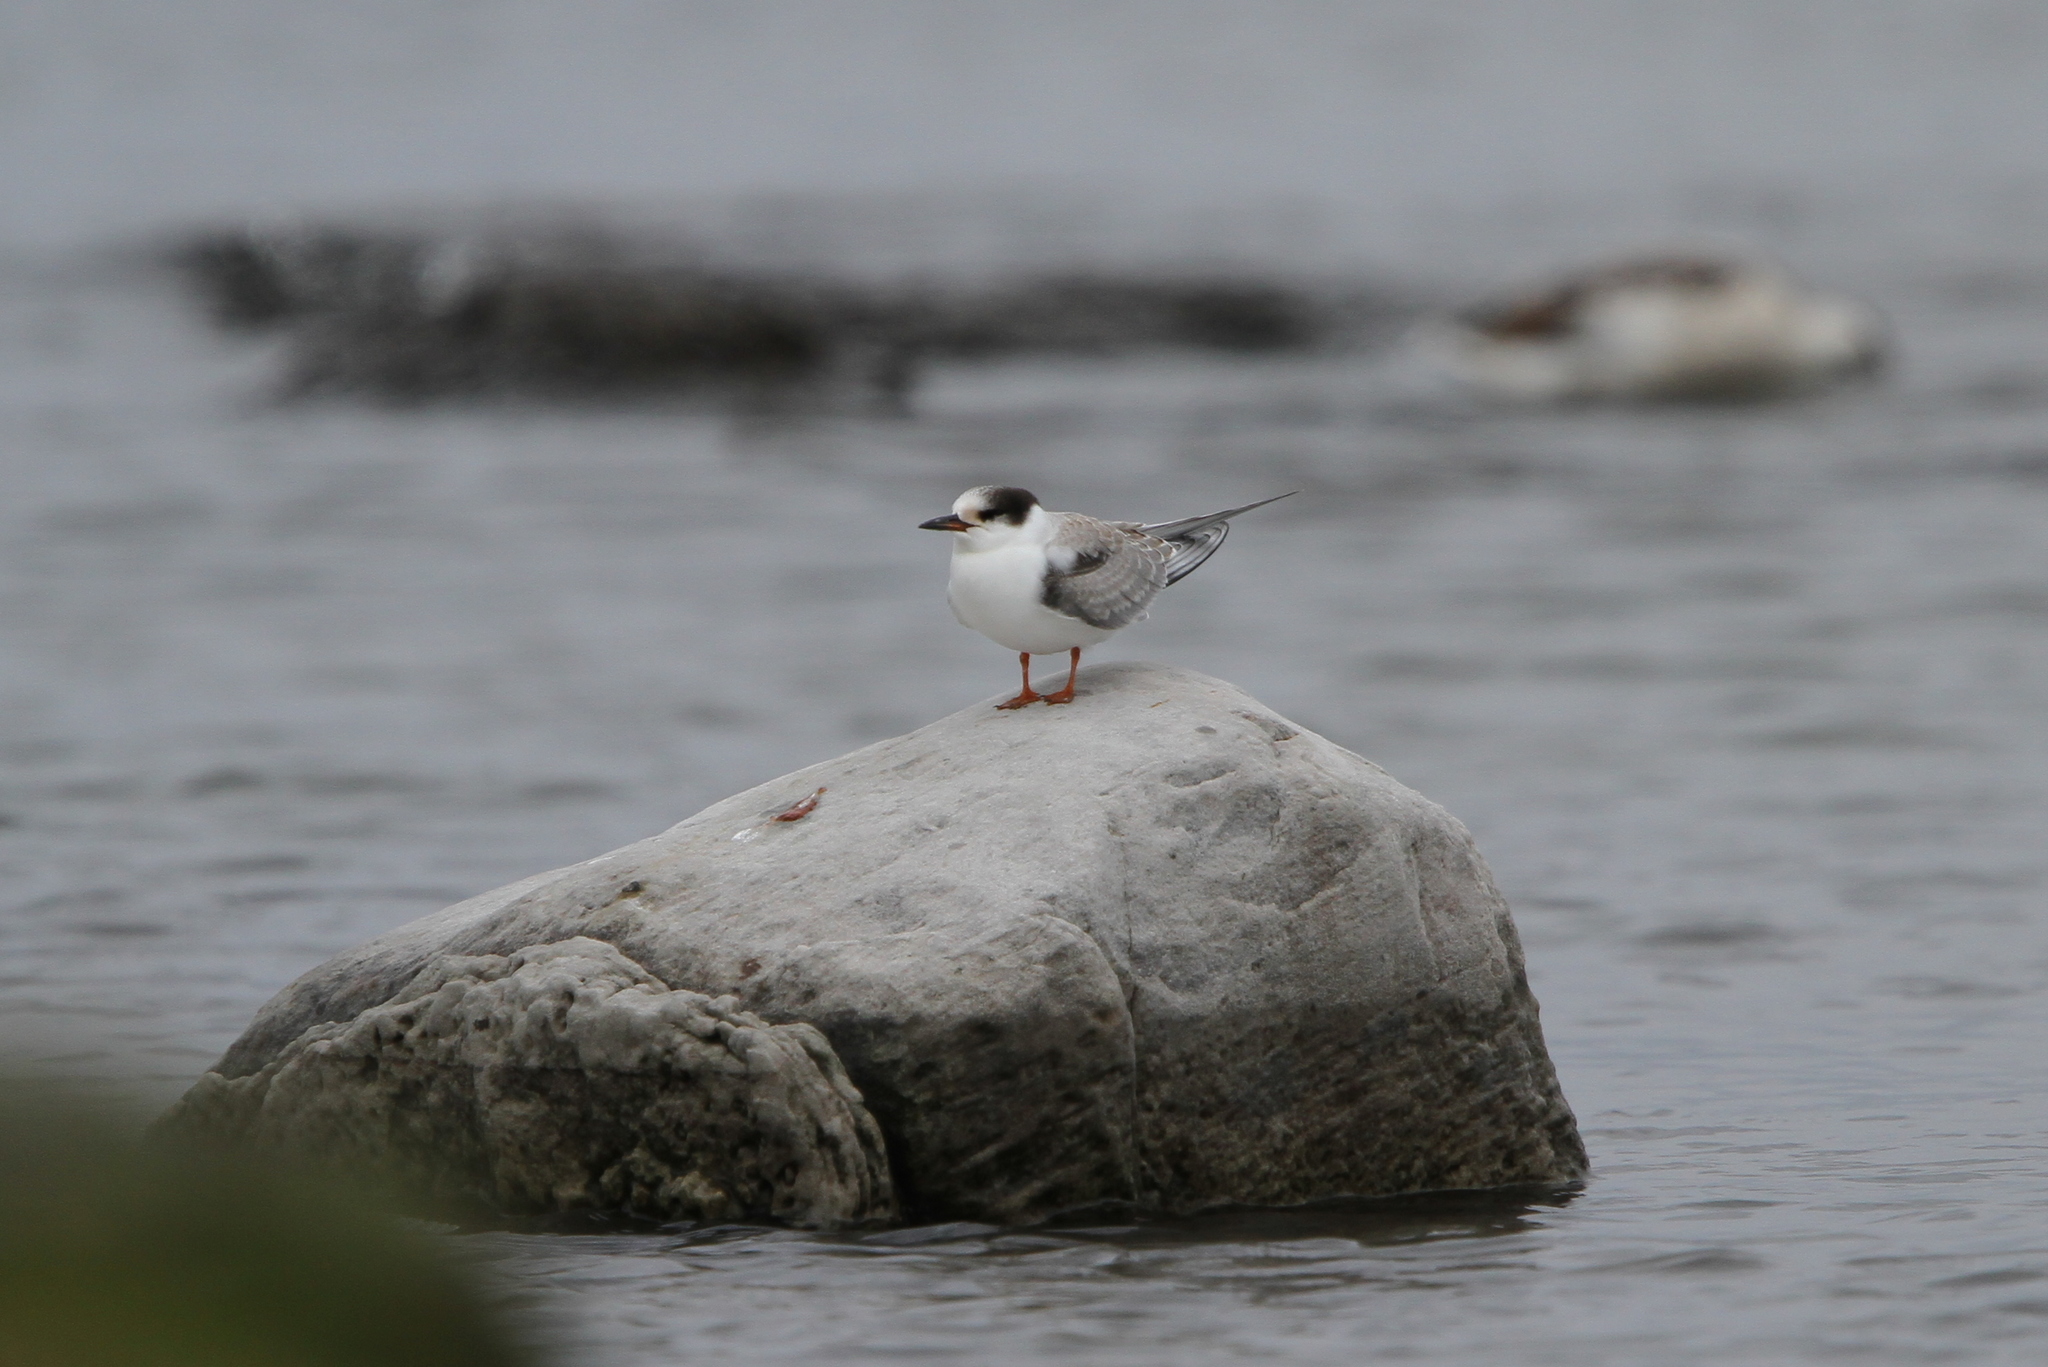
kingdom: Animalia
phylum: Chordata
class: Aves
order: Charadriiformes
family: Laridae
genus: Sterna
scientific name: Sterna hirundo
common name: Common tern
